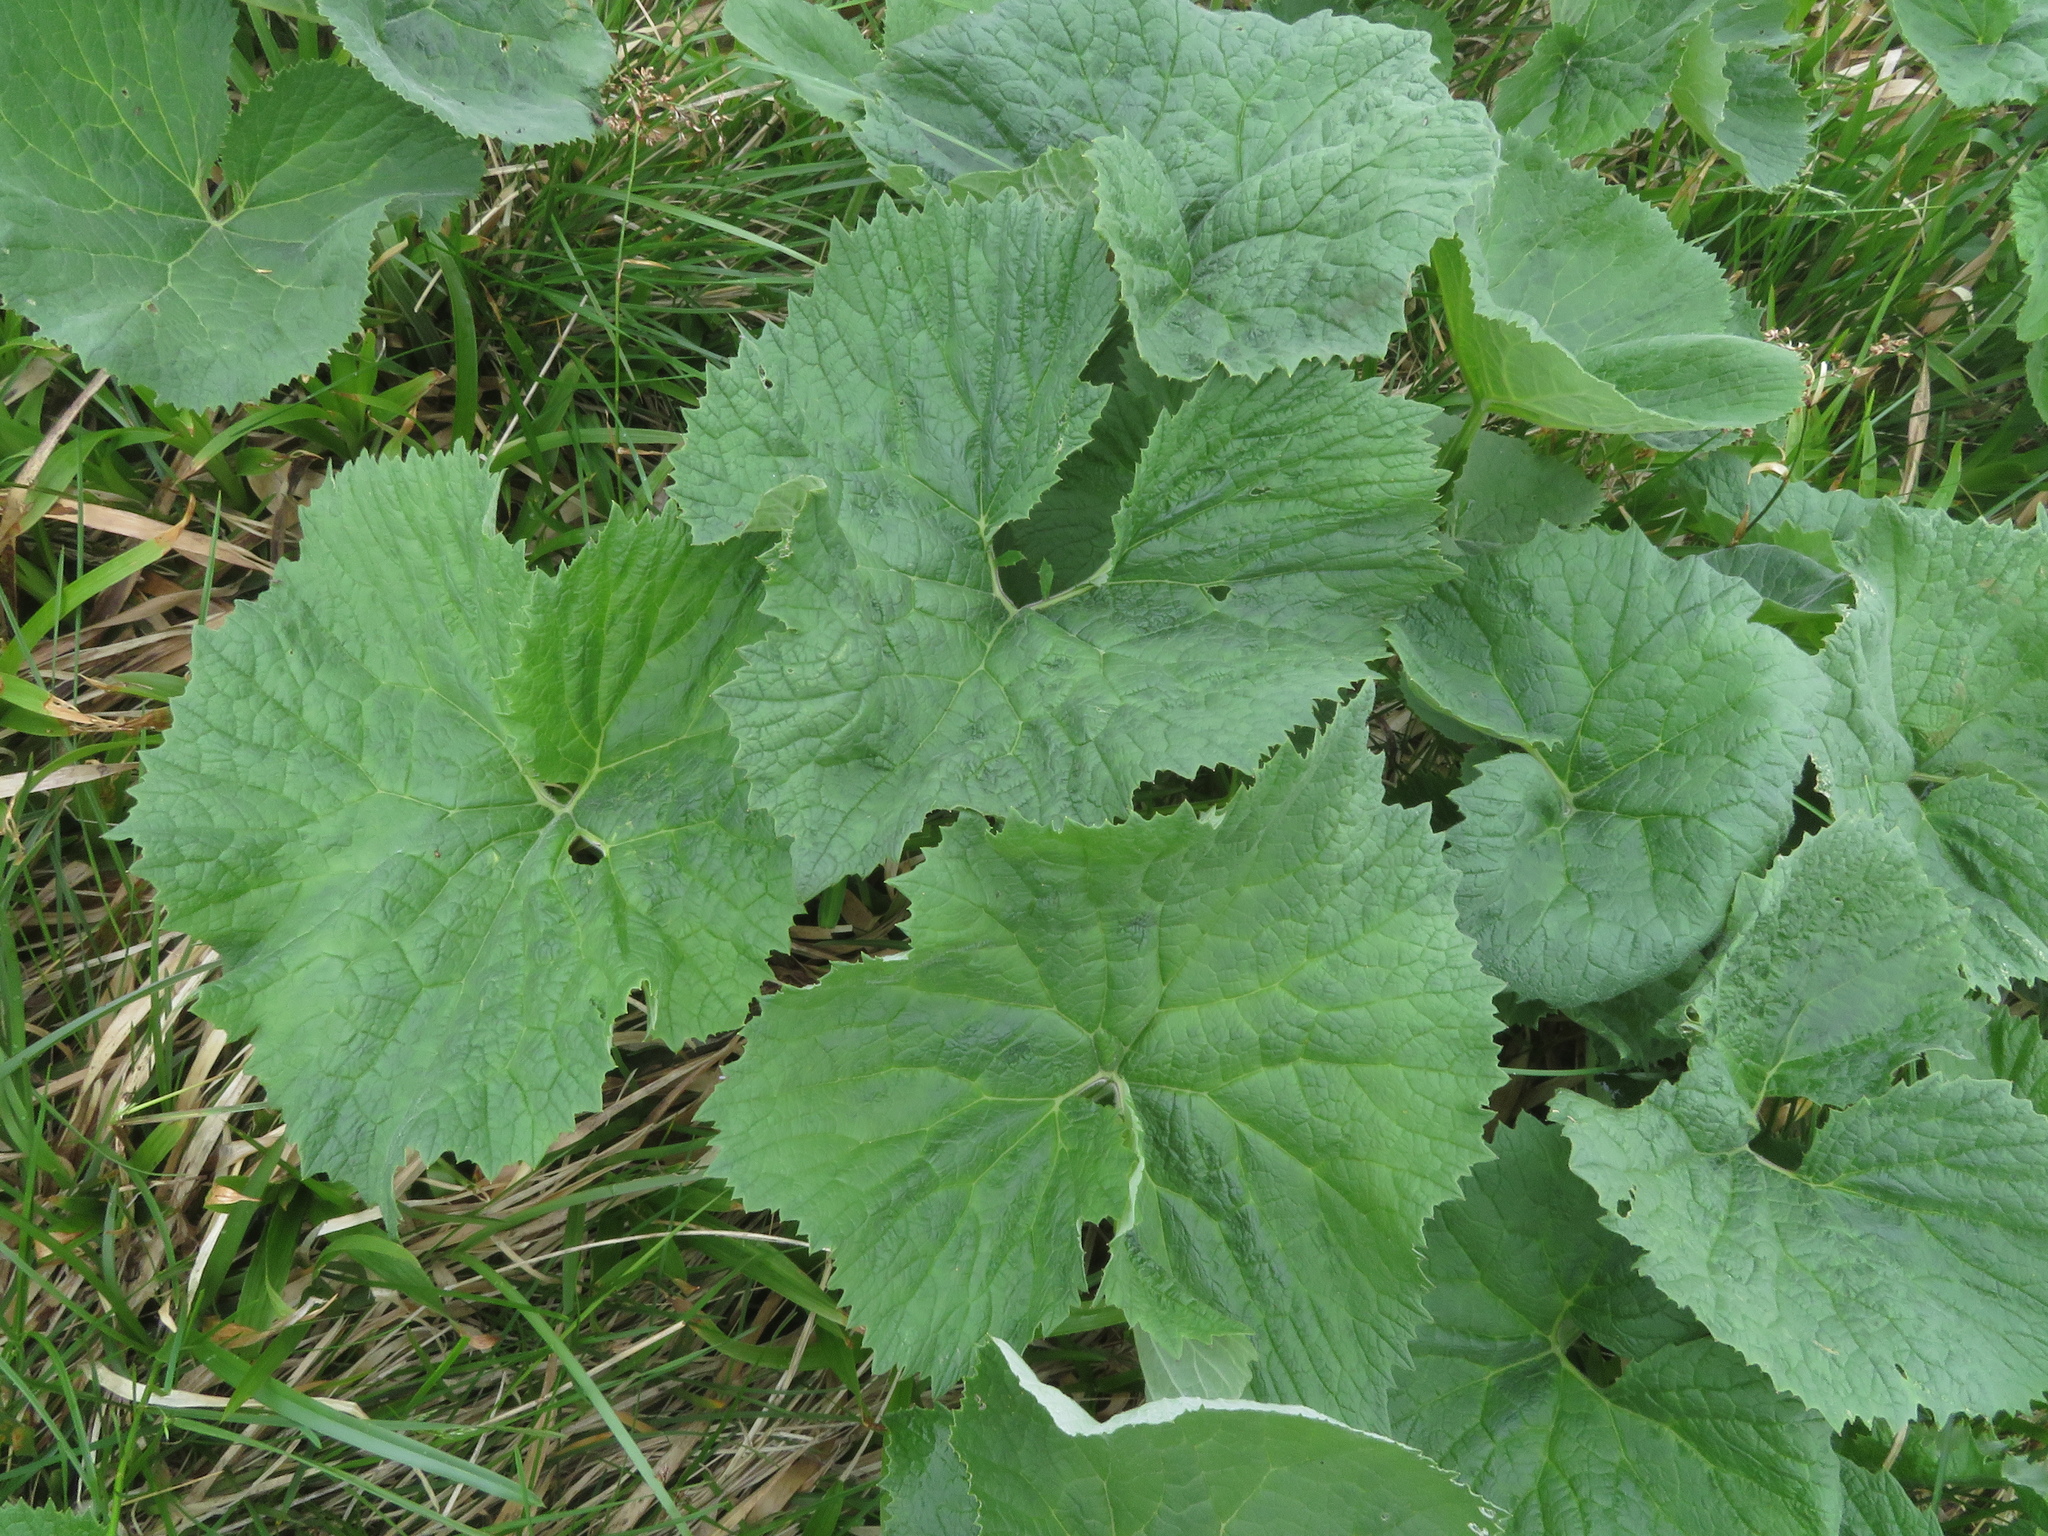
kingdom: Plantae
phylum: Tracheophyta
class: Magnoliopsida
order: Asterales
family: Asteraceae
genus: Adenostyles
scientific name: Adenostyles alliariae
